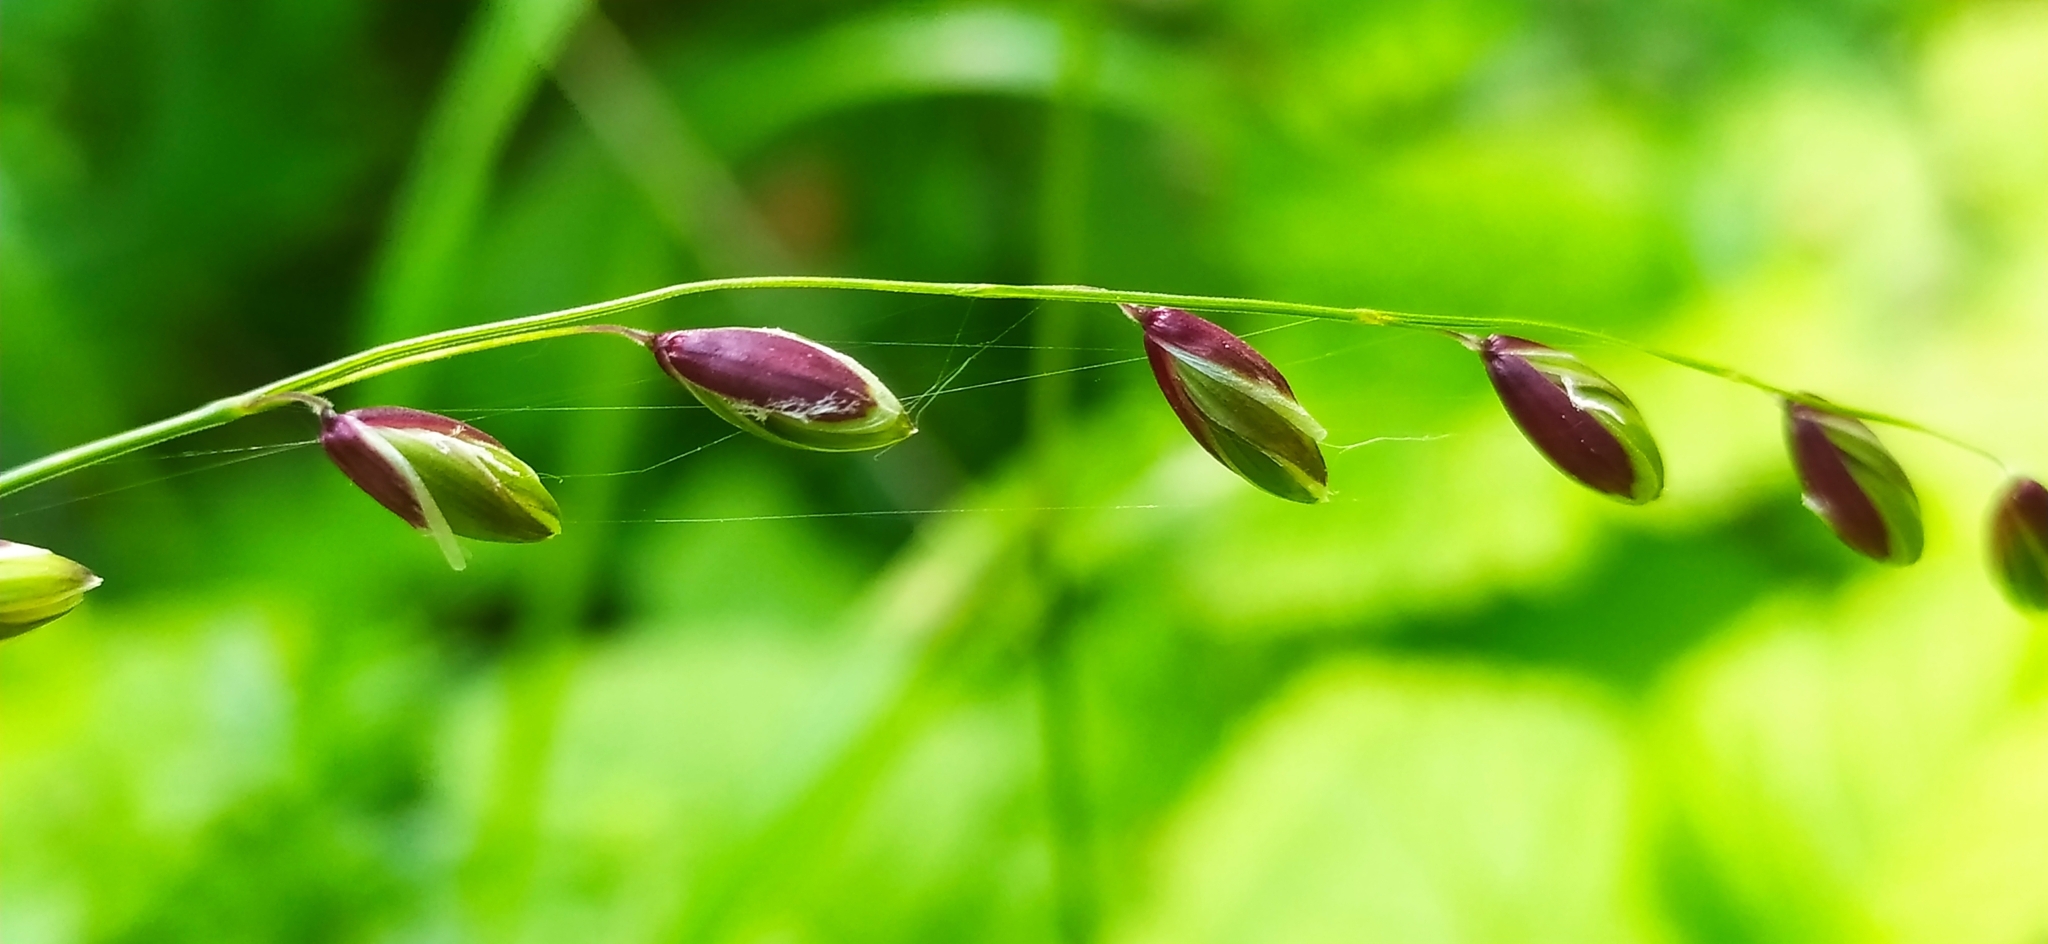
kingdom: Plantae
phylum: Tracheophyta
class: Liliopsida
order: Poales
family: Poaceae
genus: Melica
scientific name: Melica nutans
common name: Mountain melick
